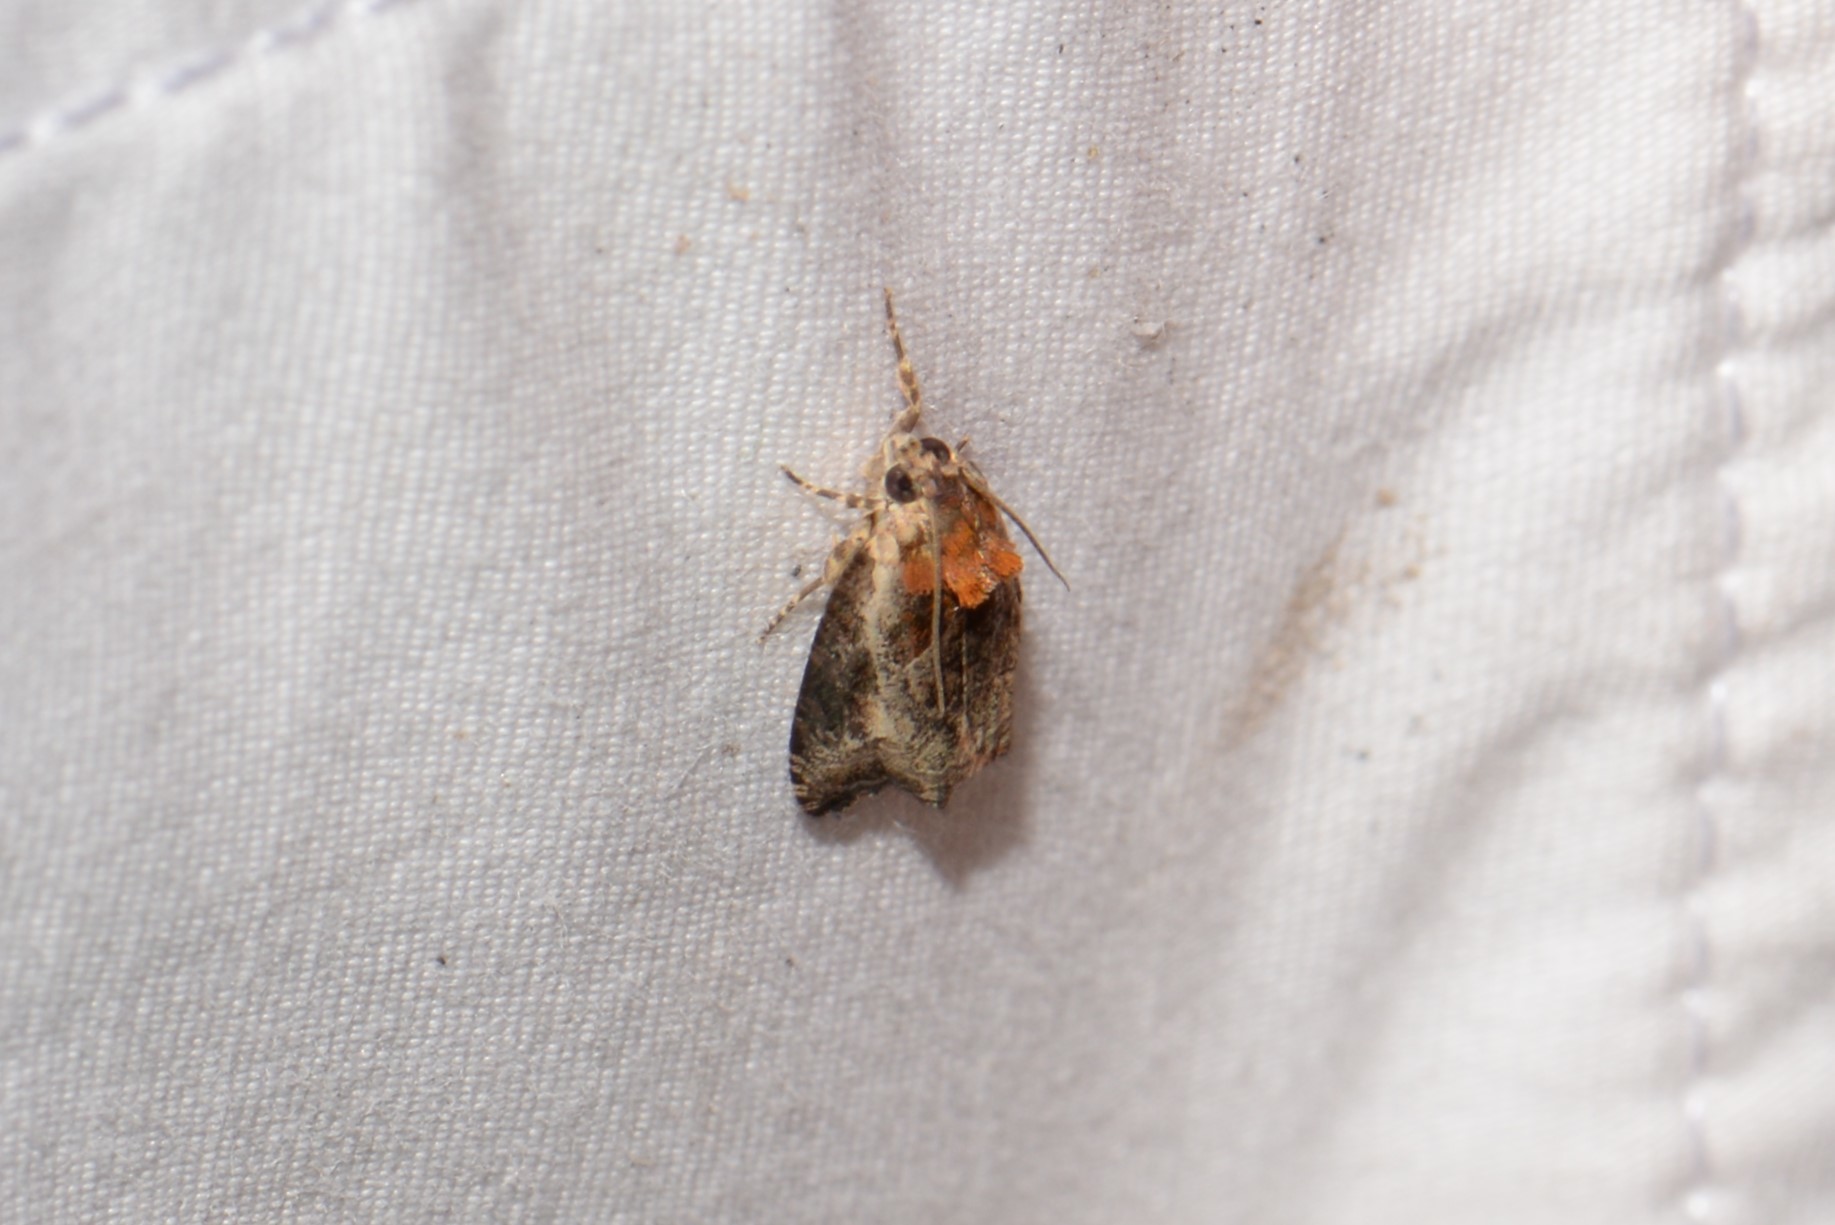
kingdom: Animalia
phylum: Arthropoda
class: Insecta
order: Lepidoptera
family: Tortricidae
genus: Olethreutes
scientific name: Olethreutes inornatana
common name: Inornate olethreutes moth
